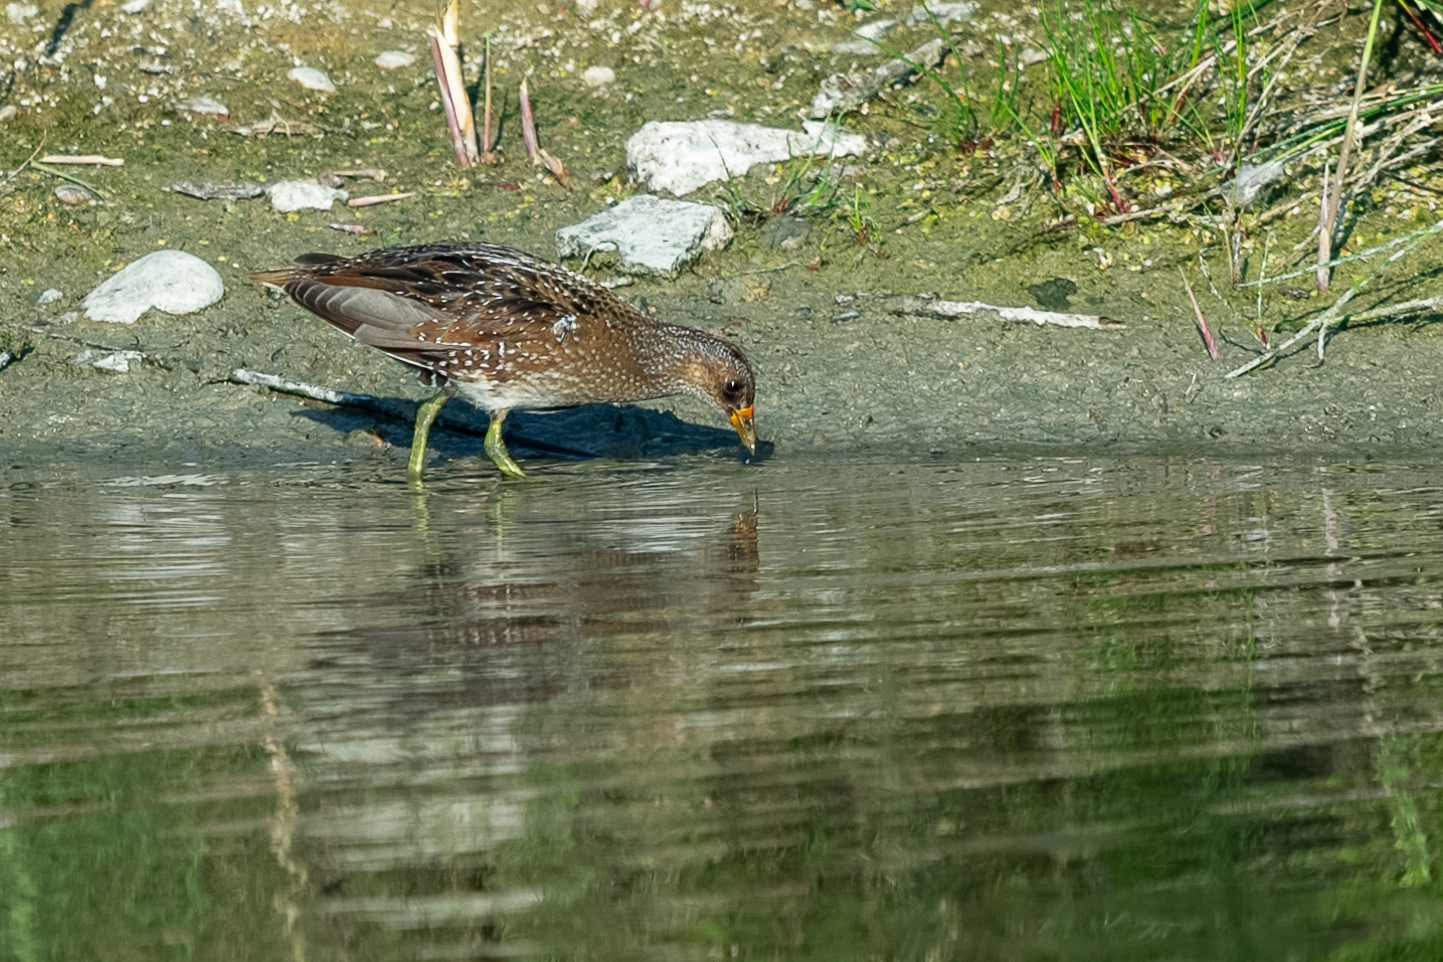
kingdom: Animalia
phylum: Chordata
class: Aves
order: Gruiformes
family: Rallidae
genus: Porzana
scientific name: Porzana porzana
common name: Spotted crake
